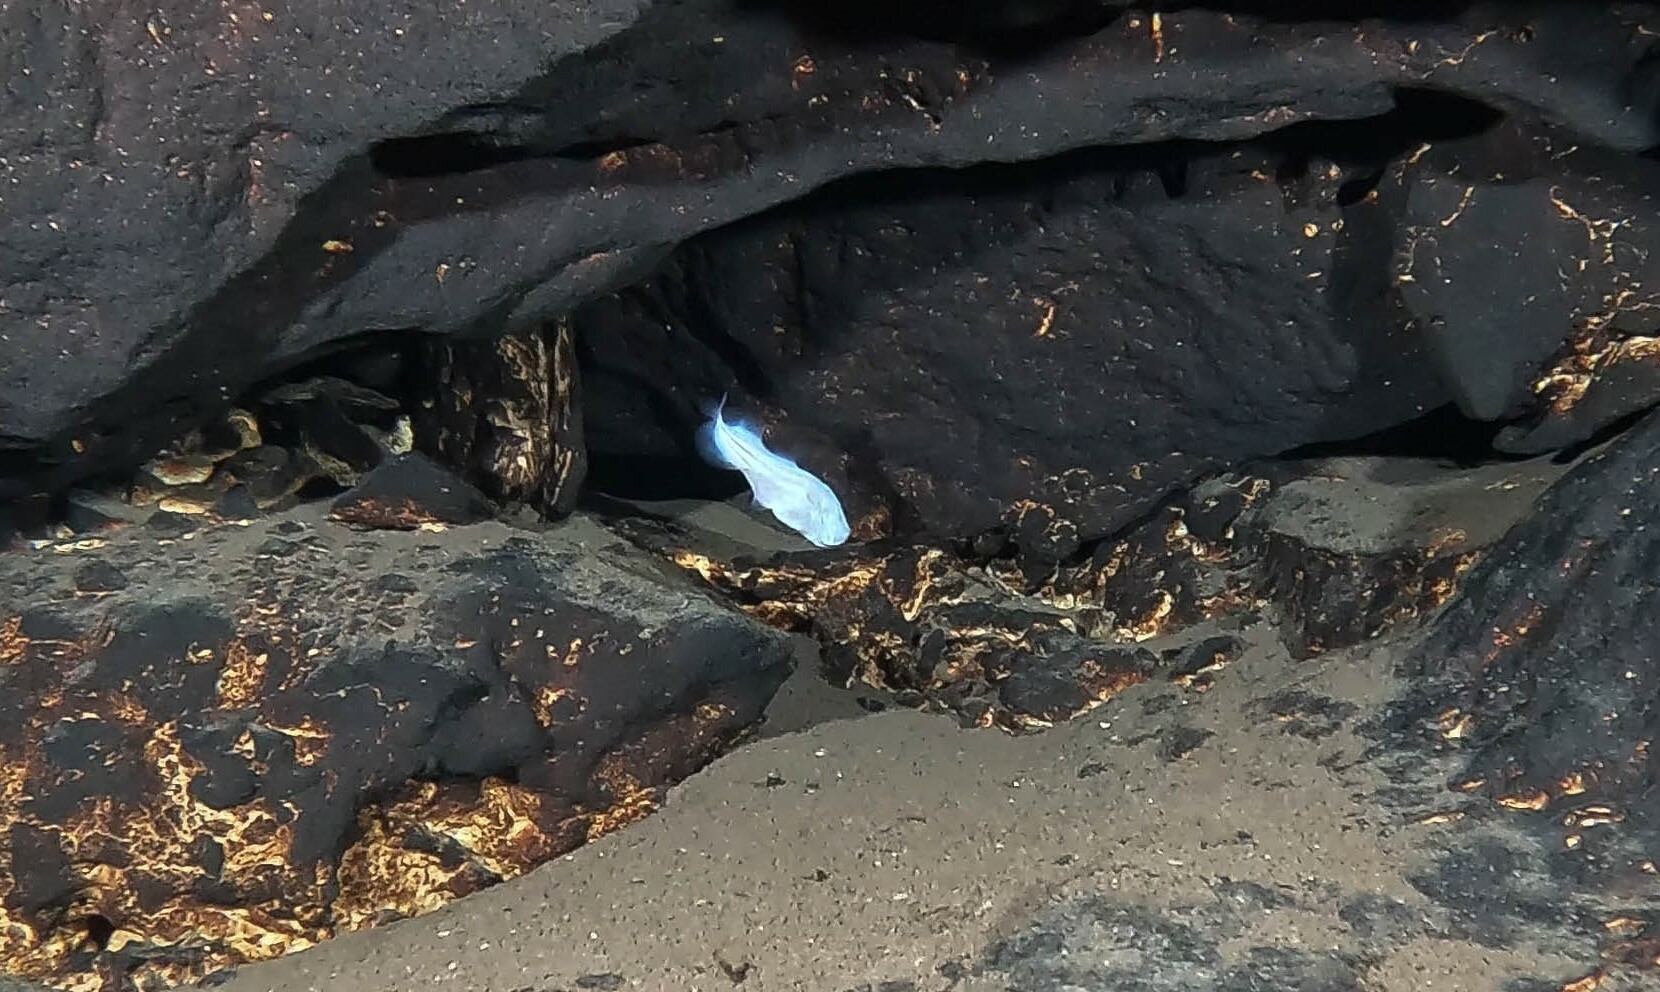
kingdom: Animalia
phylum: Chordata
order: Ophidiiformes
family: Bythitidae
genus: Typhliasina
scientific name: Typhliasina pearsei
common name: Dama ciega blanca
